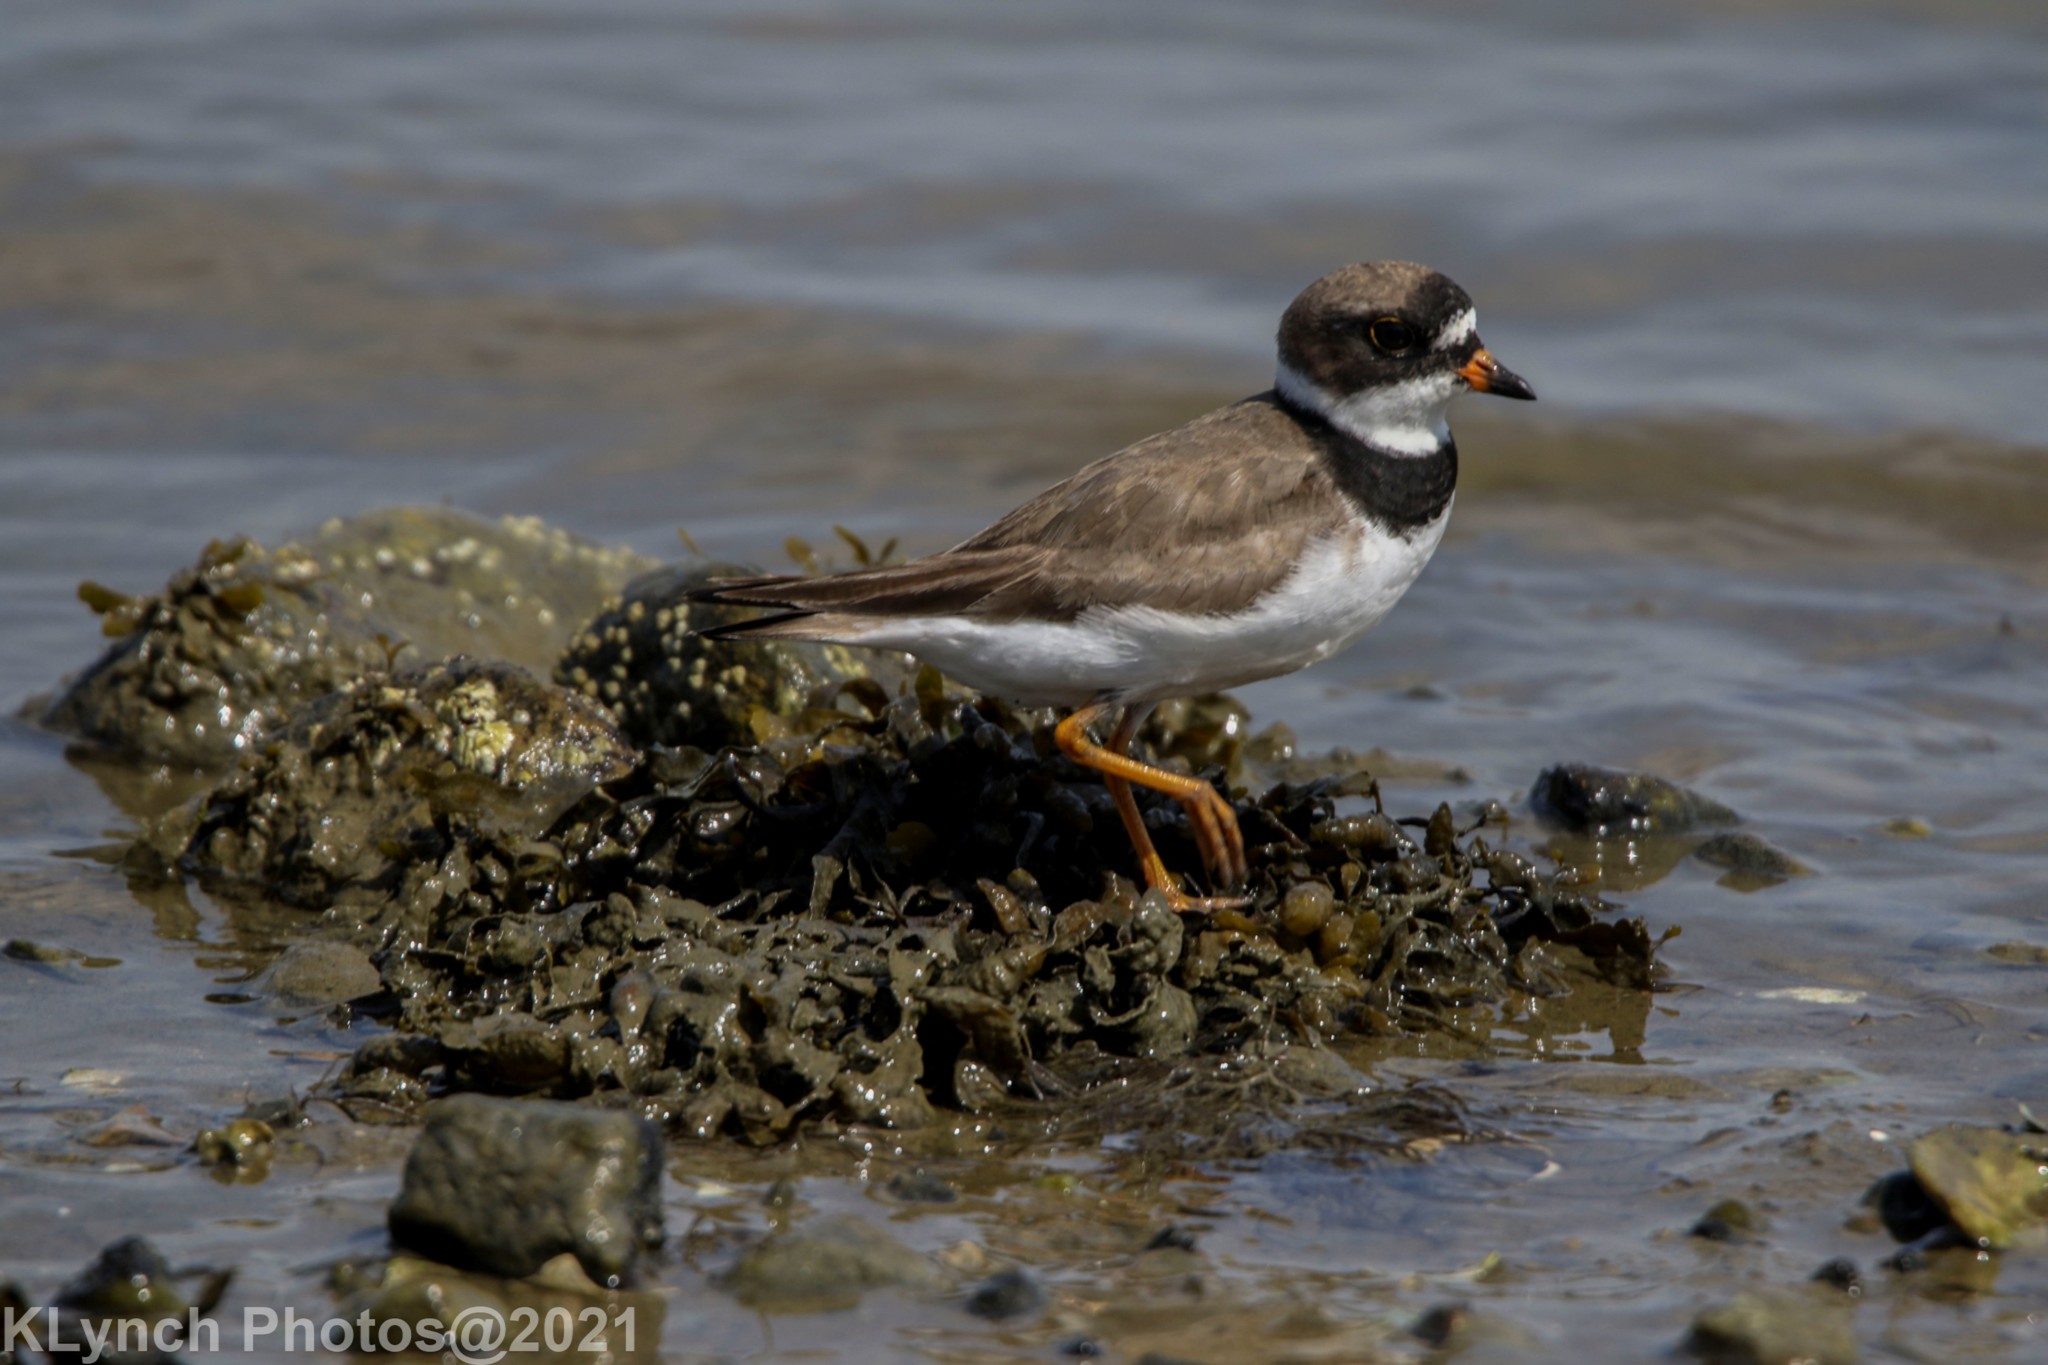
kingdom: Animalia
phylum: Chordata
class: Aves
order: Charadriiformes
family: Charadriidae
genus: Charadrius
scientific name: Charadrius semipalmatus
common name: Semipalmated plover
